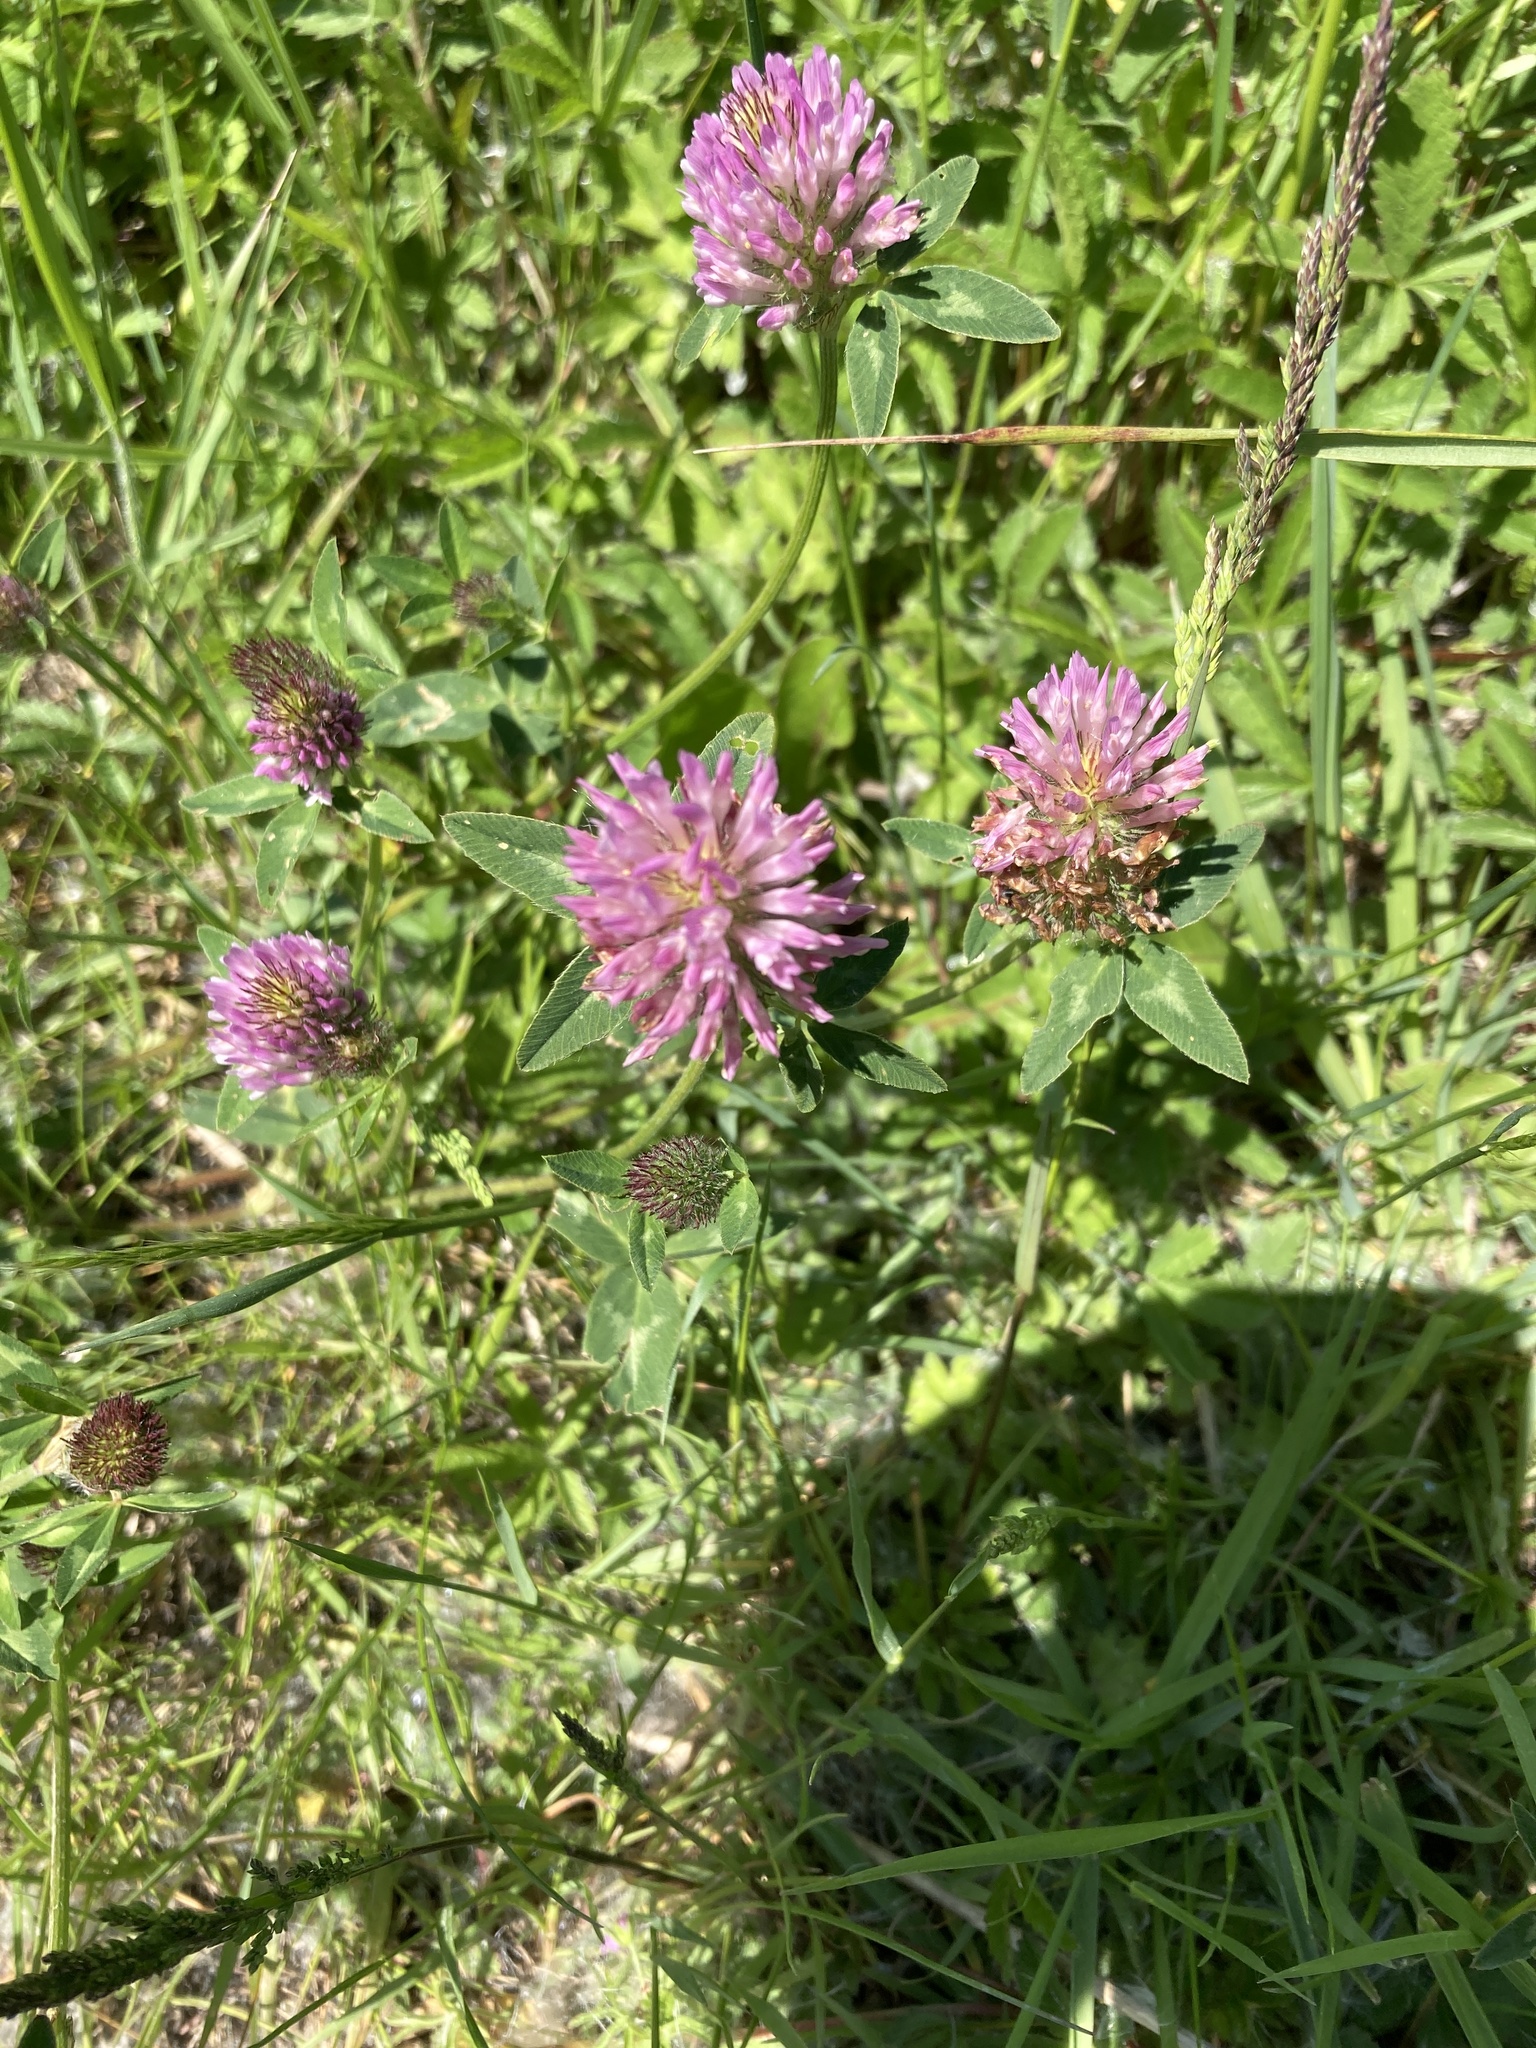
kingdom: Plantae
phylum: Tracheophyta
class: Magnoliopsida
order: Fabales
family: Fabaceae
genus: Trifolium
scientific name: Trifolium pratense
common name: Red clover
